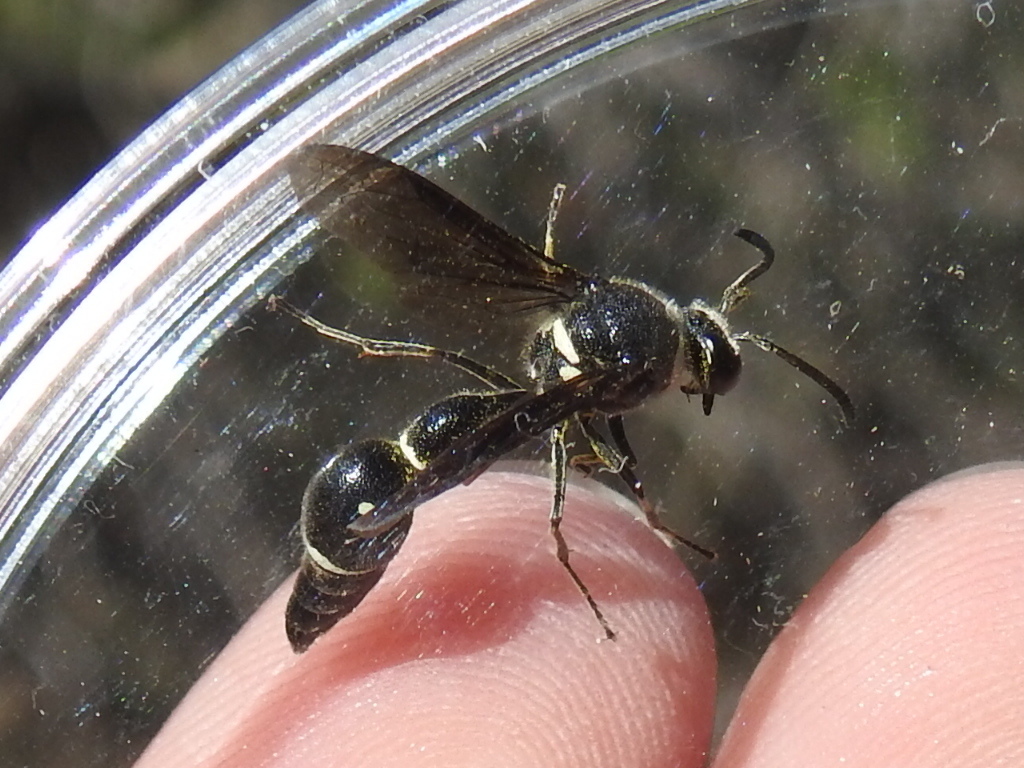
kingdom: Animalia
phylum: Arthropoda
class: Insecta
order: Hymenoptera
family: Vespidae
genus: Eumenes
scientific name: Eumenes fraternus
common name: Fraternal potter wasp
